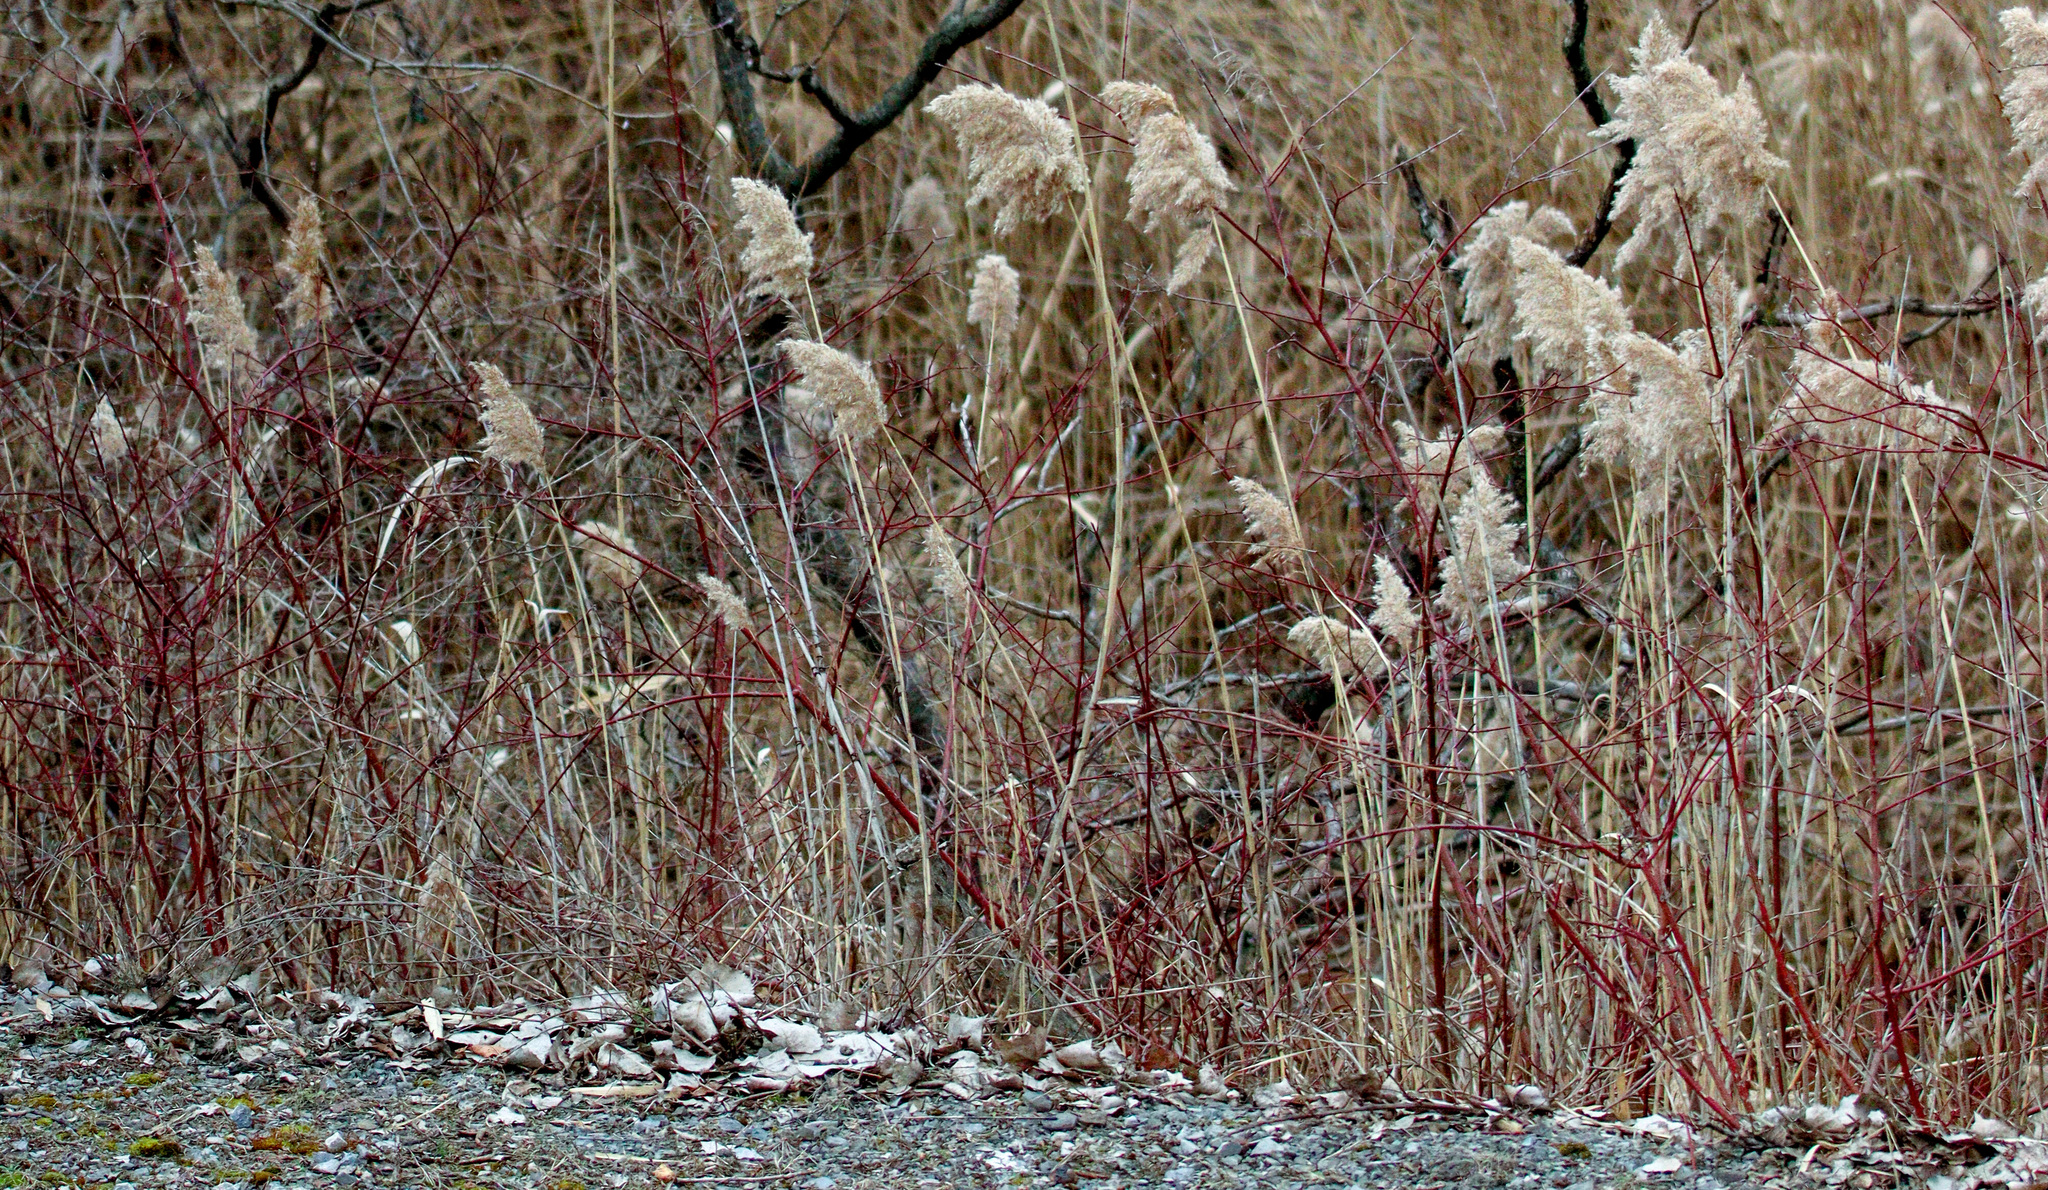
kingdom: Plantae
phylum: Tracheophyta
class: Magnoliopsida
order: Cornales
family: Cornaceae
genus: Cornus
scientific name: Cornus sericea
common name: Red-osier dogwood
